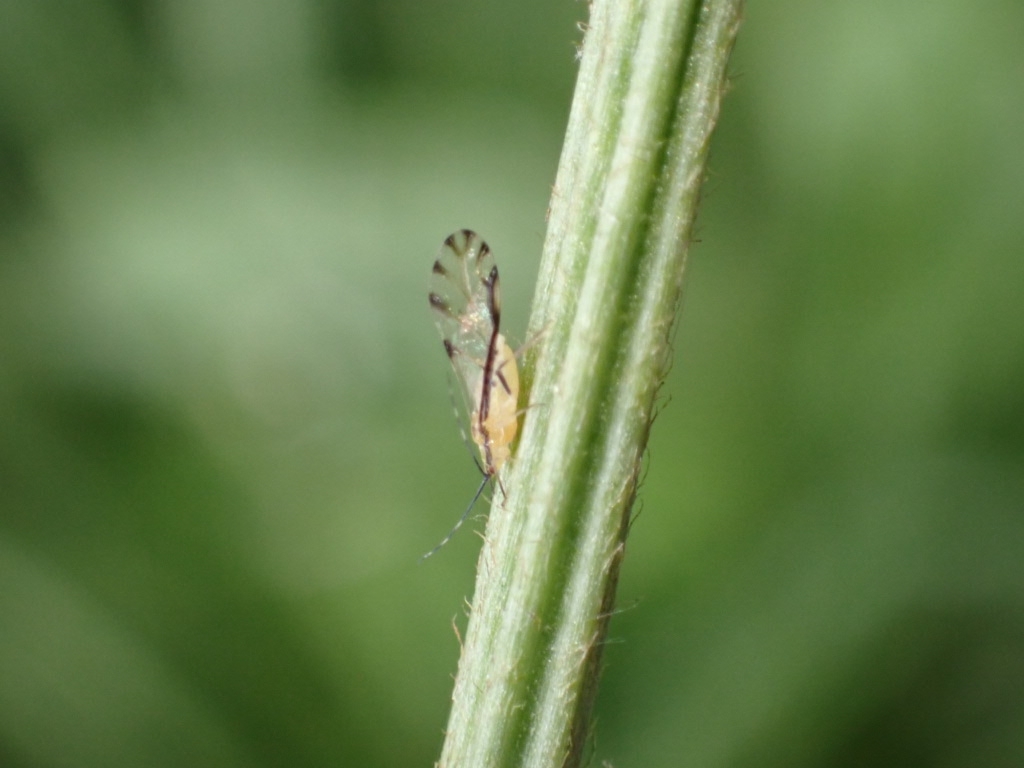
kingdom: Animalia
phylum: Arthropoda
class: Insecta
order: Hemiptera
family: Aphididae
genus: Eucallipterus
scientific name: Eucallipterus tiliae
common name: Aphid
